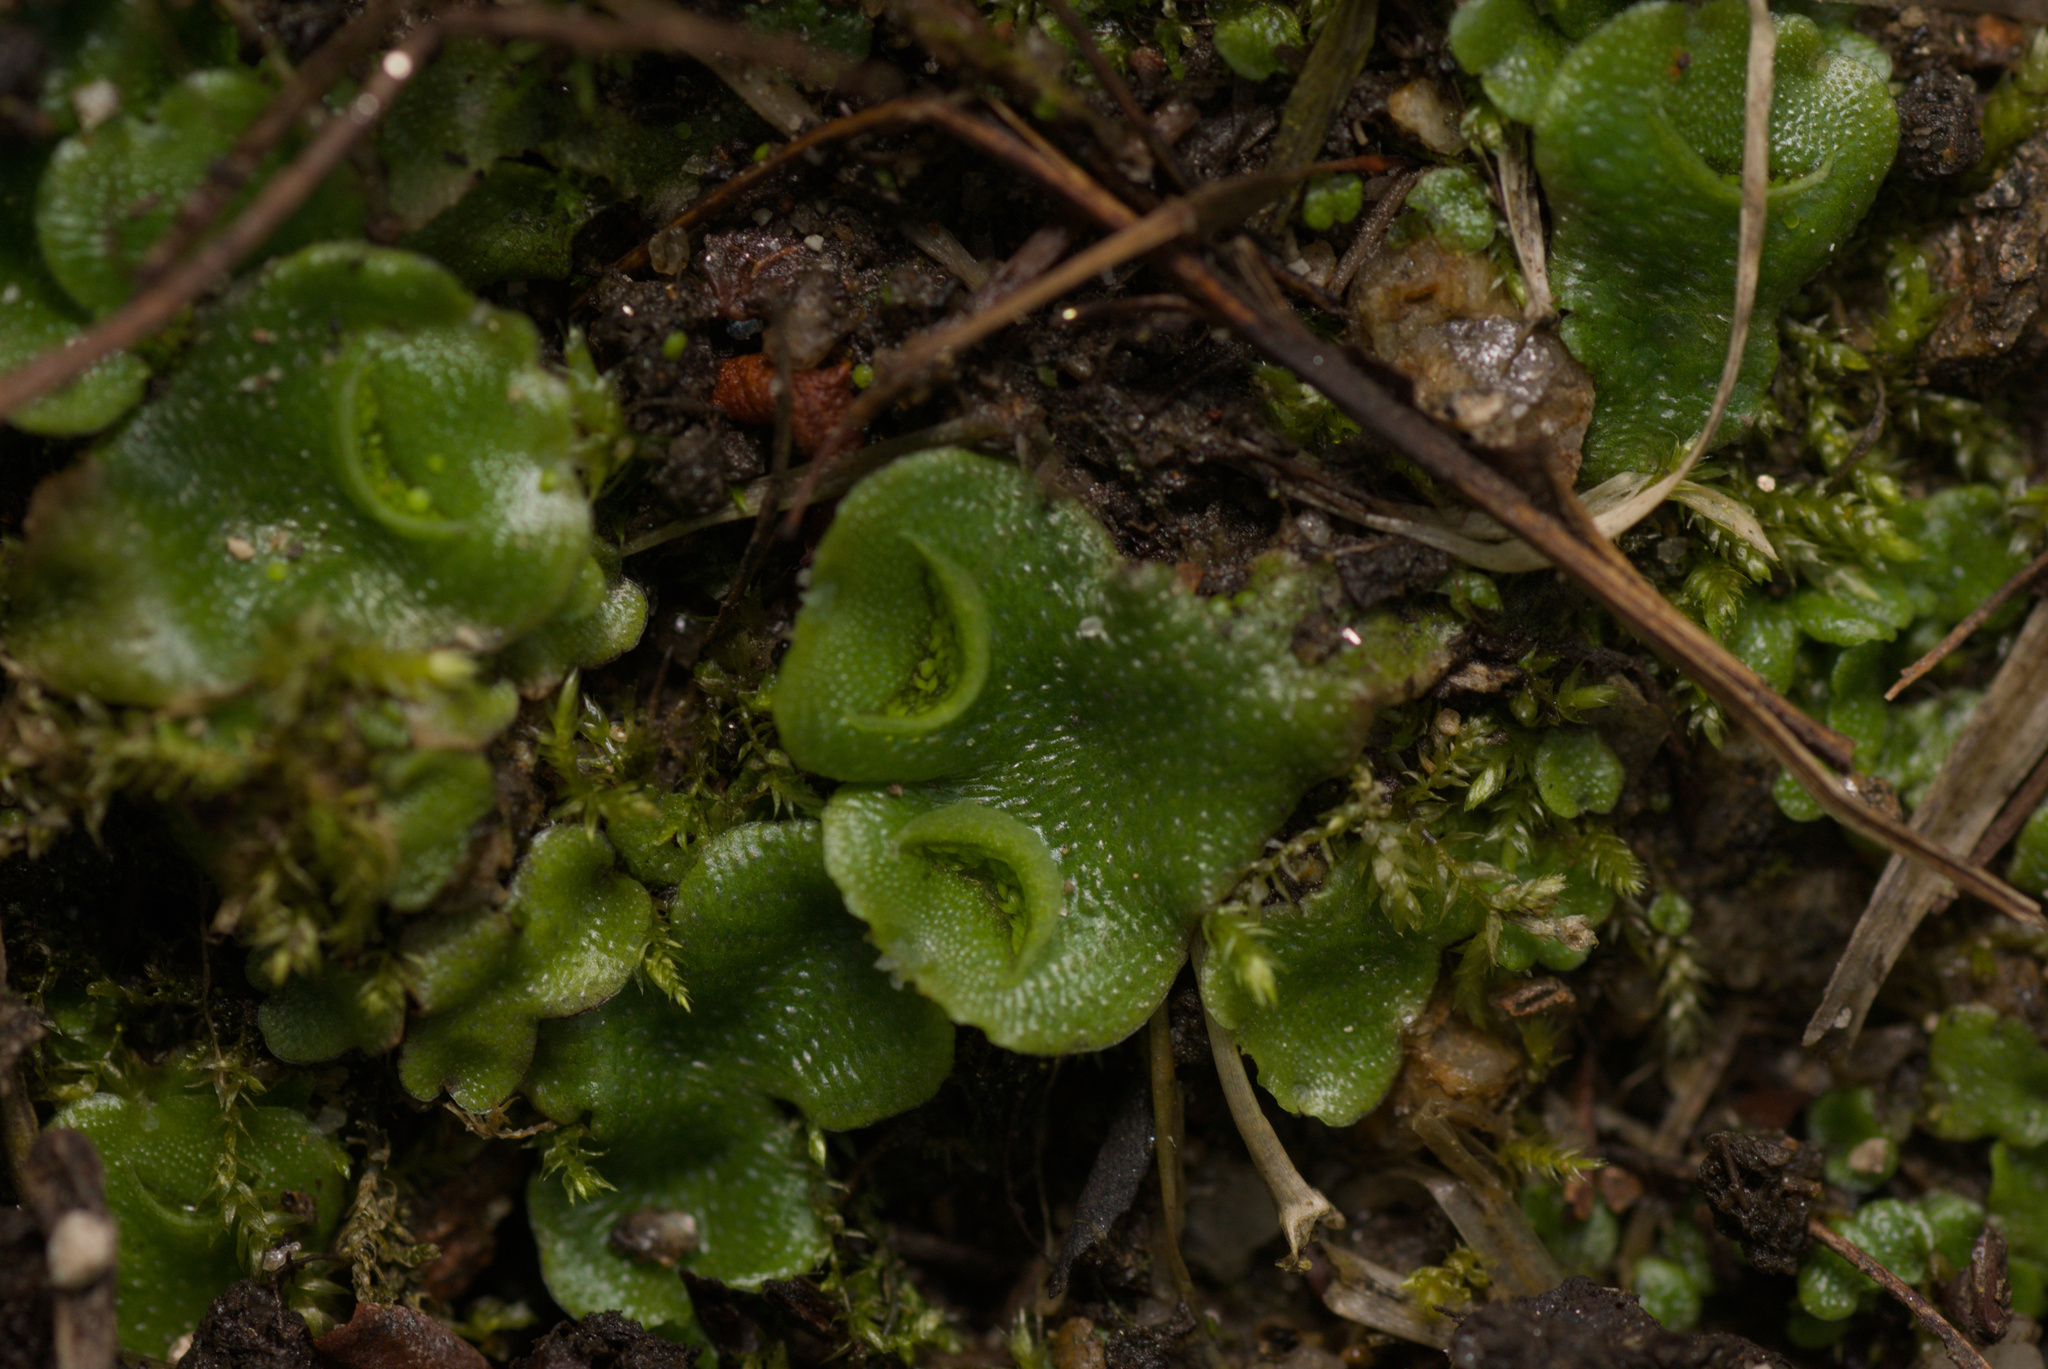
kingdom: Plantae
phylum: Marchantiophyta
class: Marchantiopsida
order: Lunulariales
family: Lunulariaceae
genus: Lunularia
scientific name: Lunularia cruciata
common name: Crescent-cup liverwort
